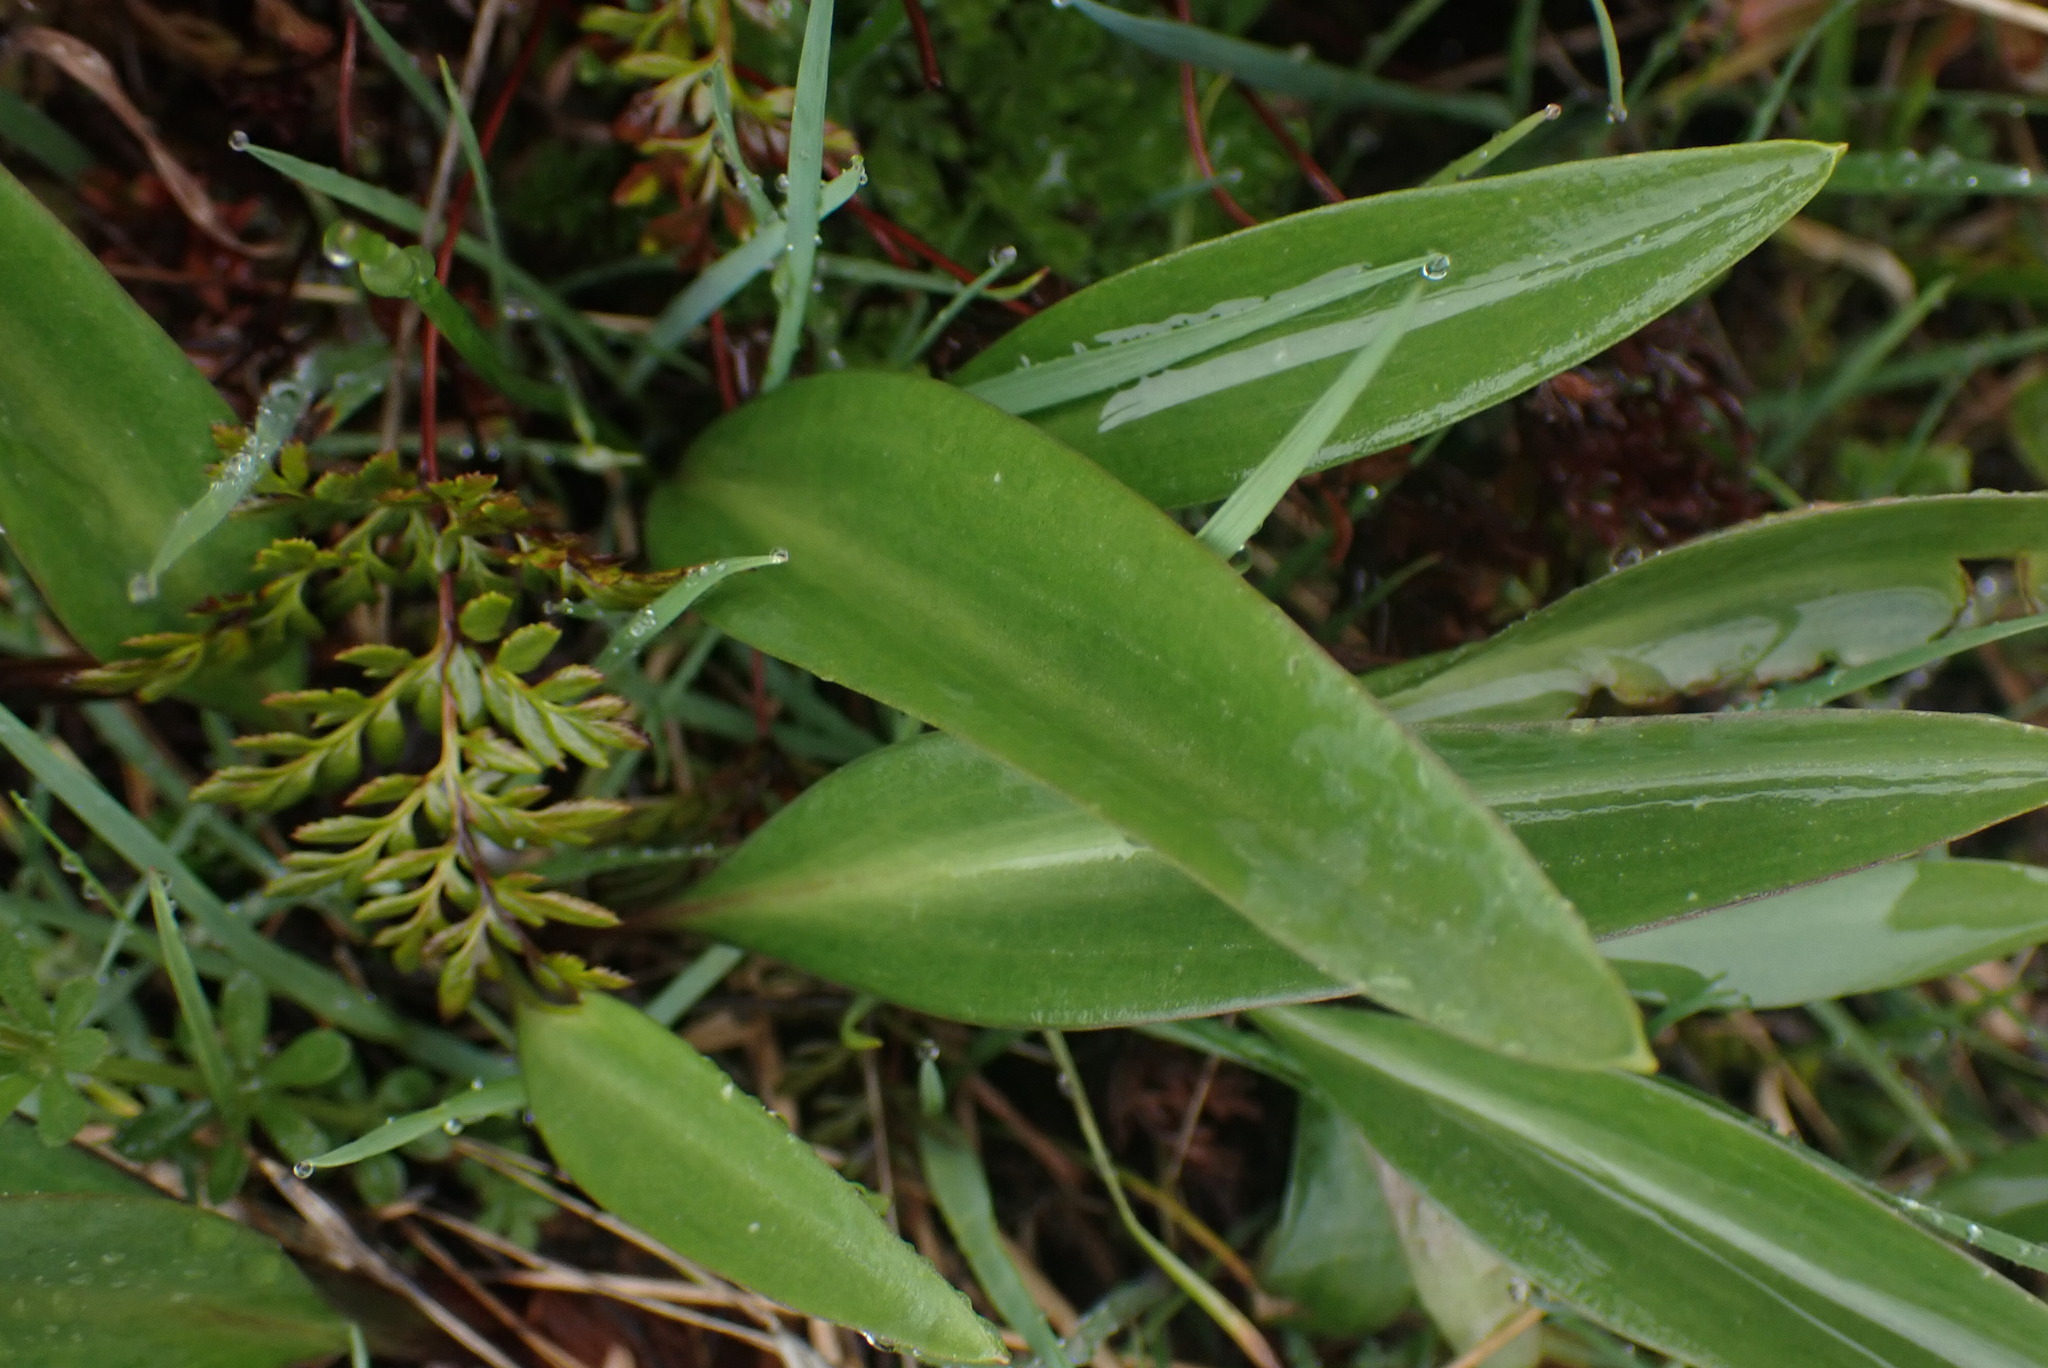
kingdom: Plantae
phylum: Tracheophyta
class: Liliopsida
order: Liliales
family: Liliaceae
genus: Fritillaria
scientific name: Fritillaria affinis
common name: Ojai fritillary
